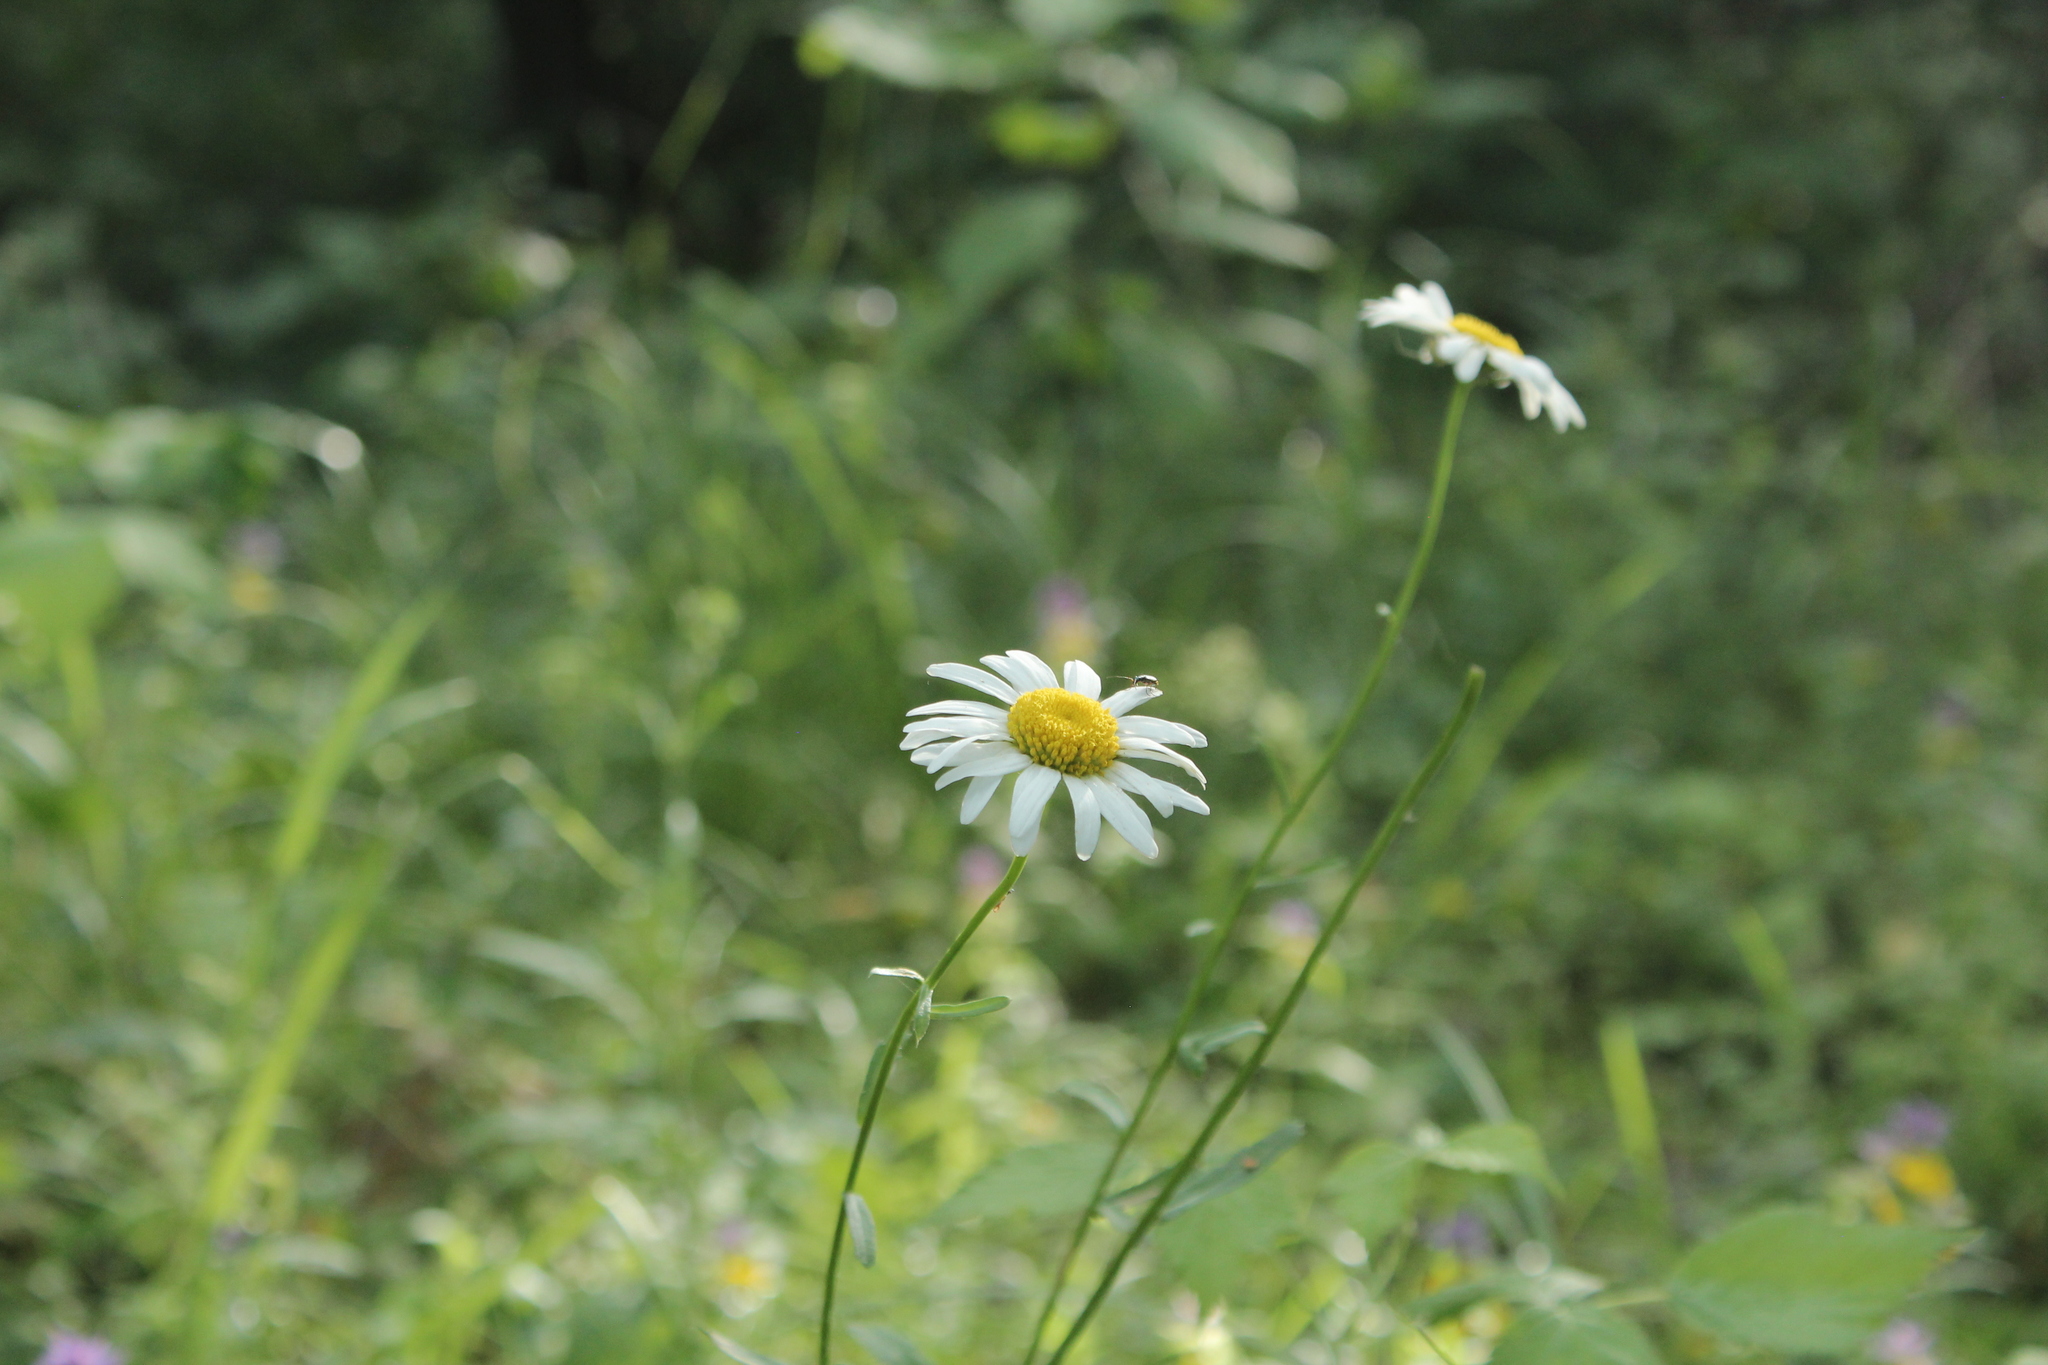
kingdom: Plantae
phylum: Tracheophyta
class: Magnoliopsida
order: Asterales
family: Asteraceae
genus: Leucanthemum
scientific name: Leucanthemum vulgare
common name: Oxeye daisy
